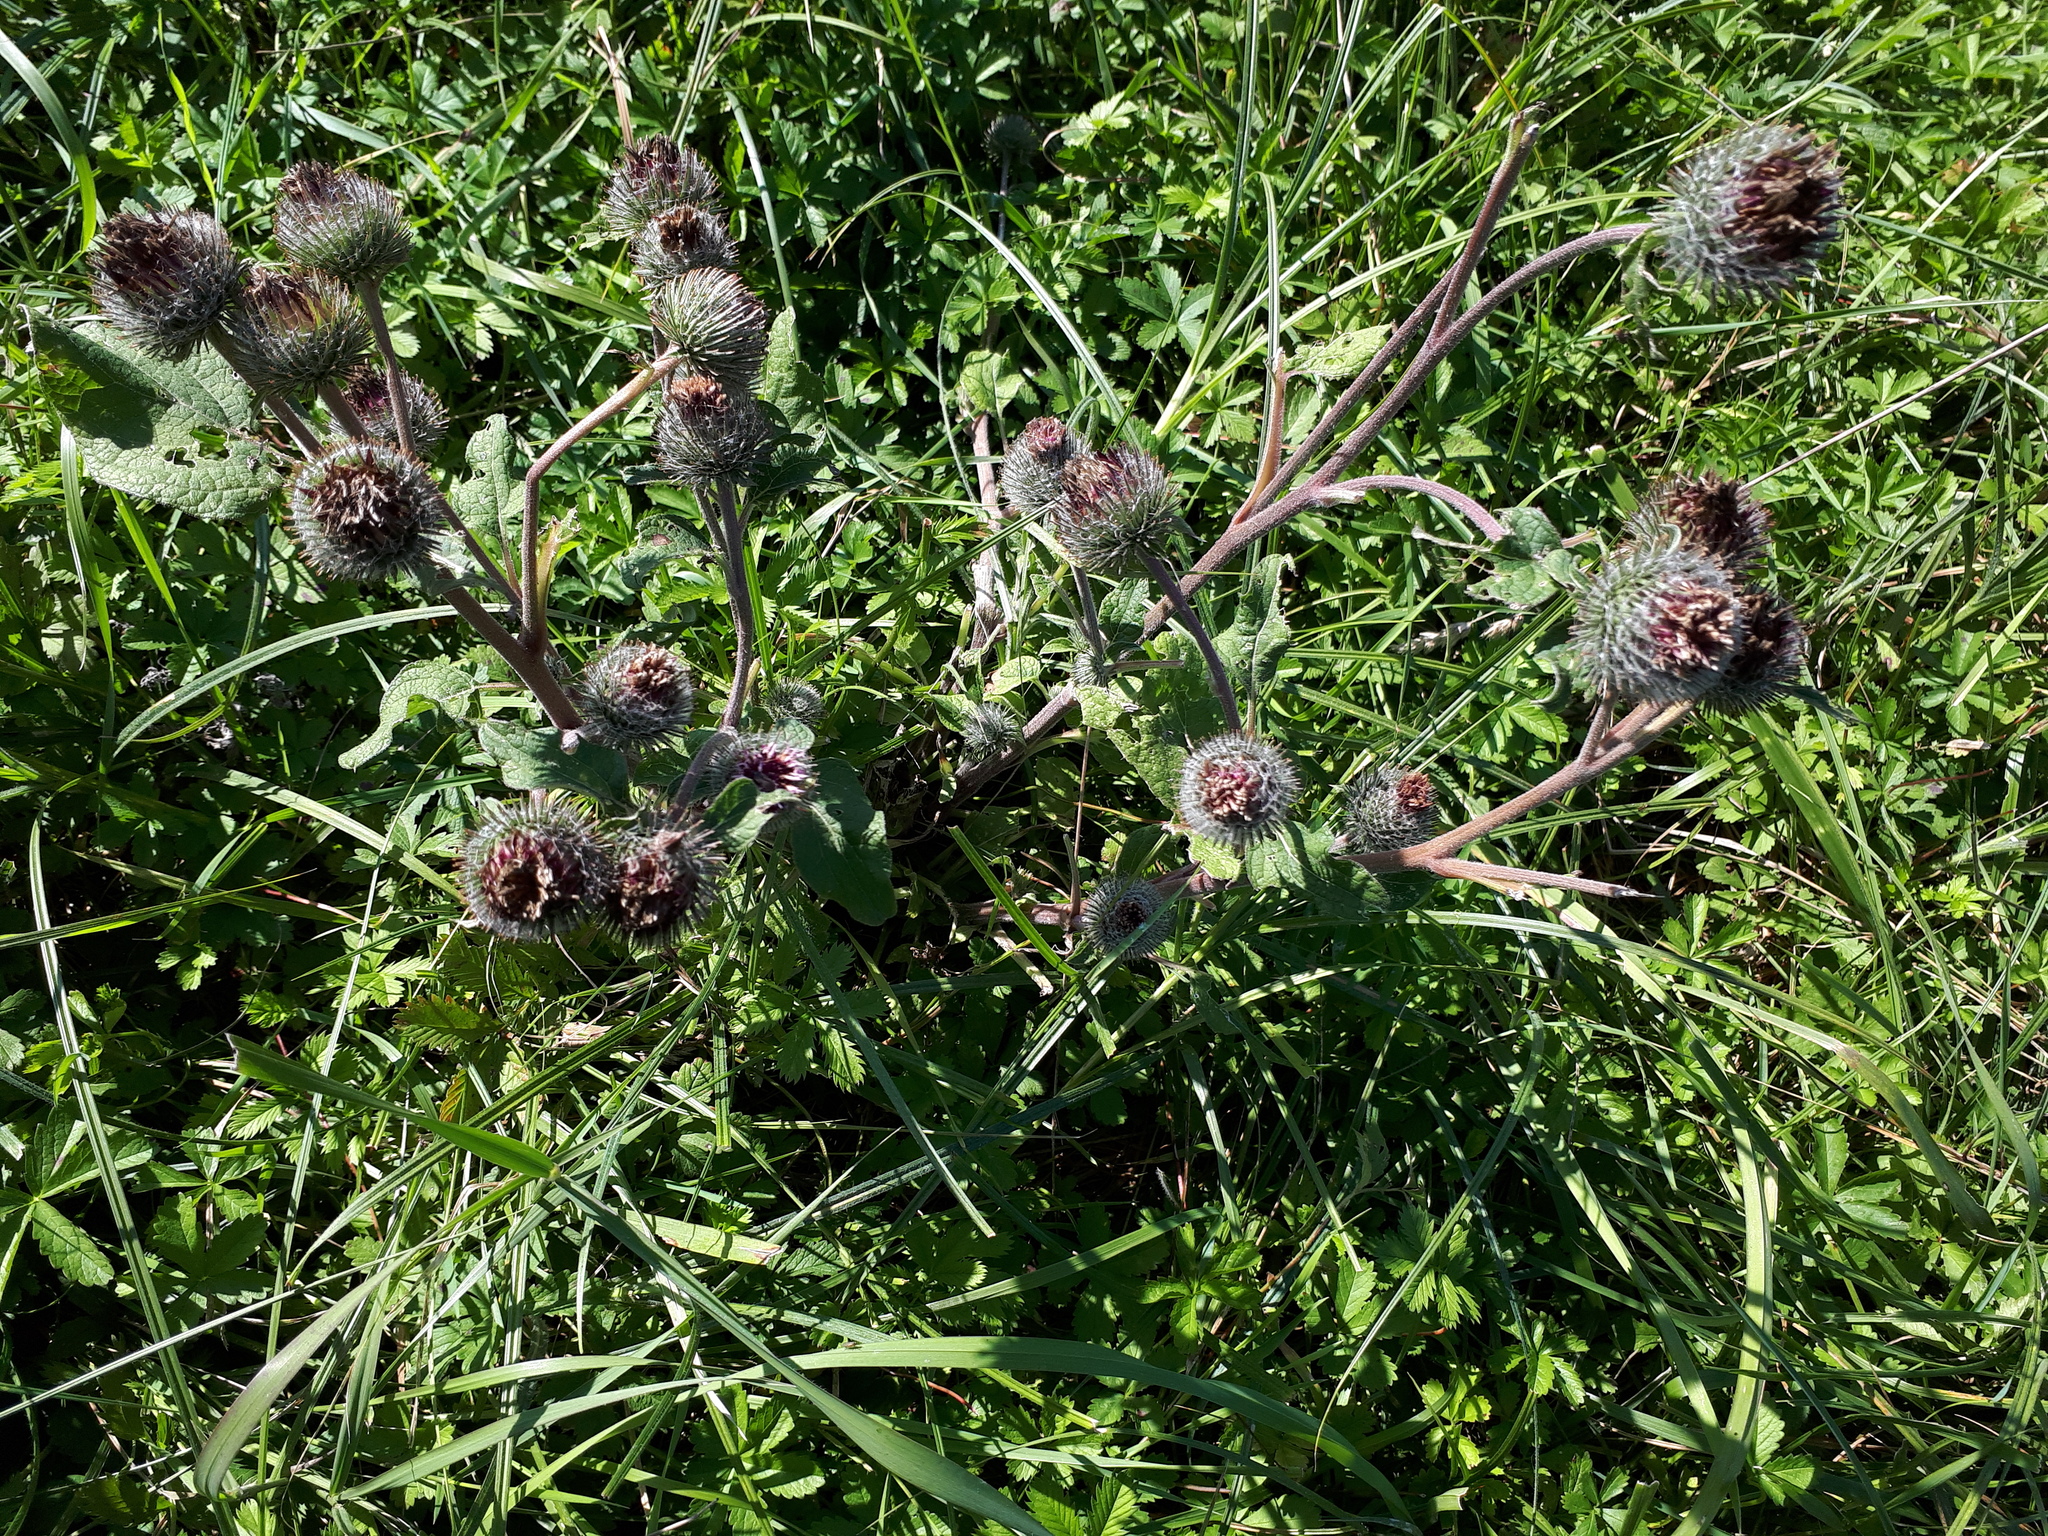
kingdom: Plantae
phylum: Tracheophyta
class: Magnoliopsida
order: Asterales
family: Asteraceae
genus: Arctium
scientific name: Arctium tomentosum
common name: Woolly burdock
